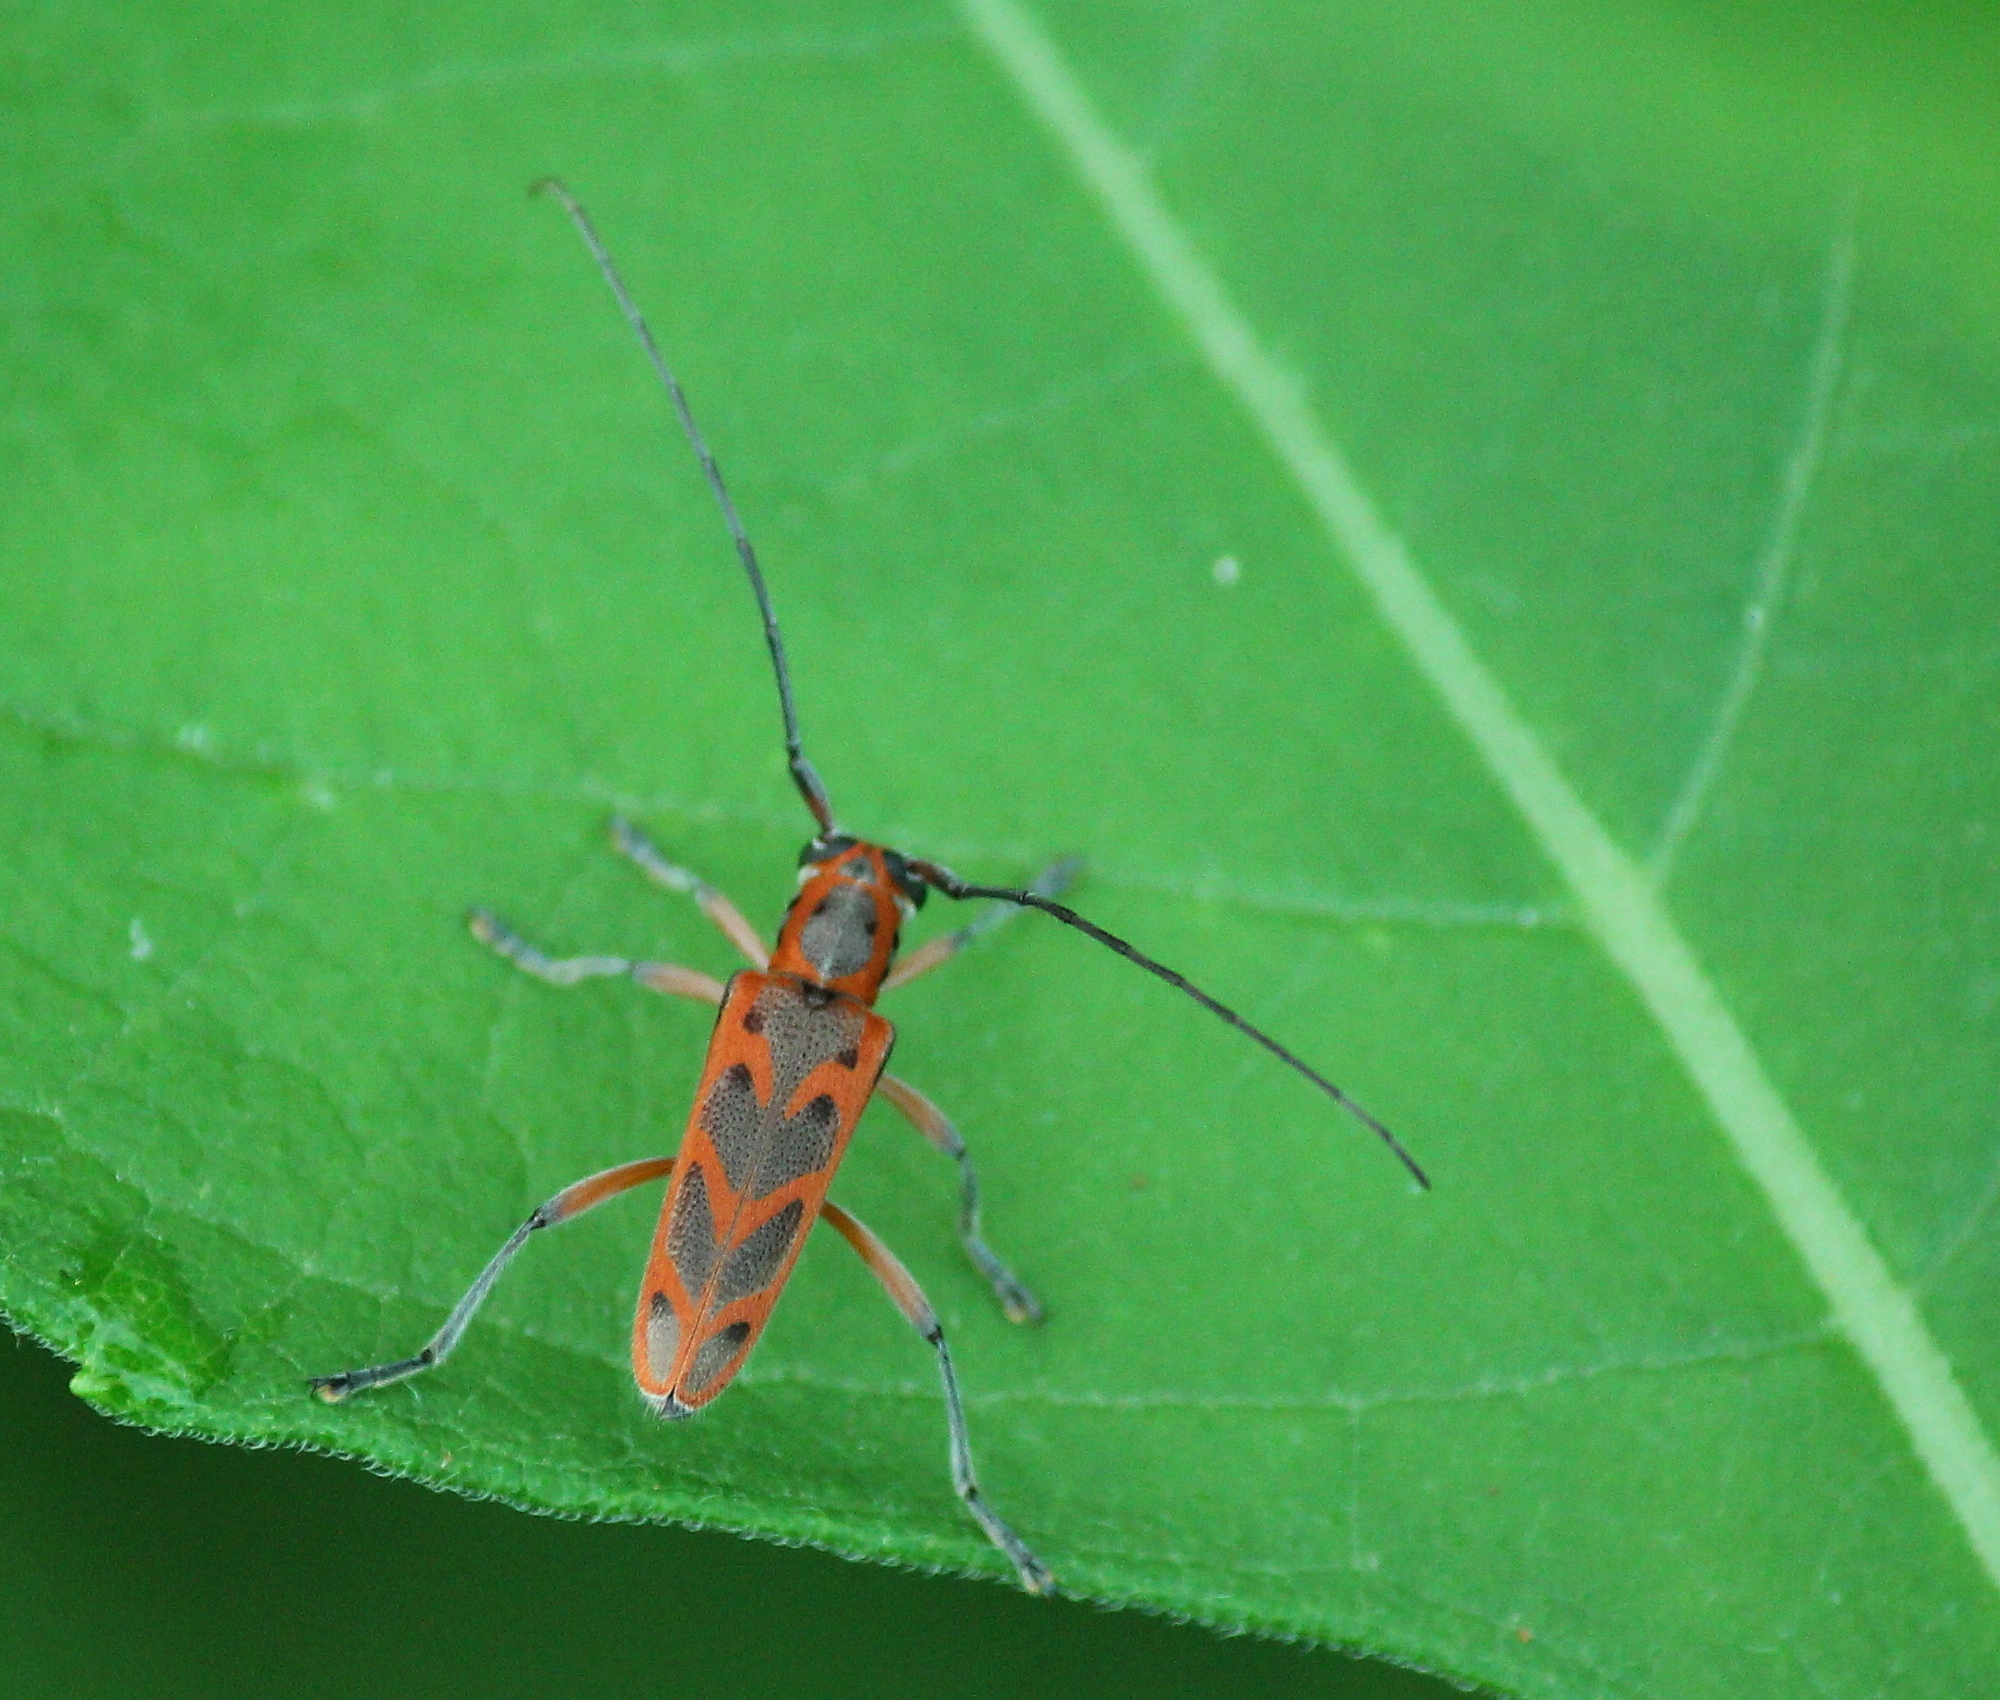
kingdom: Animalia
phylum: Arthropoda
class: Insecta
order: Coleoptera
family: Cerambycidae
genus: Saperda
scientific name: Saperda tridentata
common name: Elm borer
